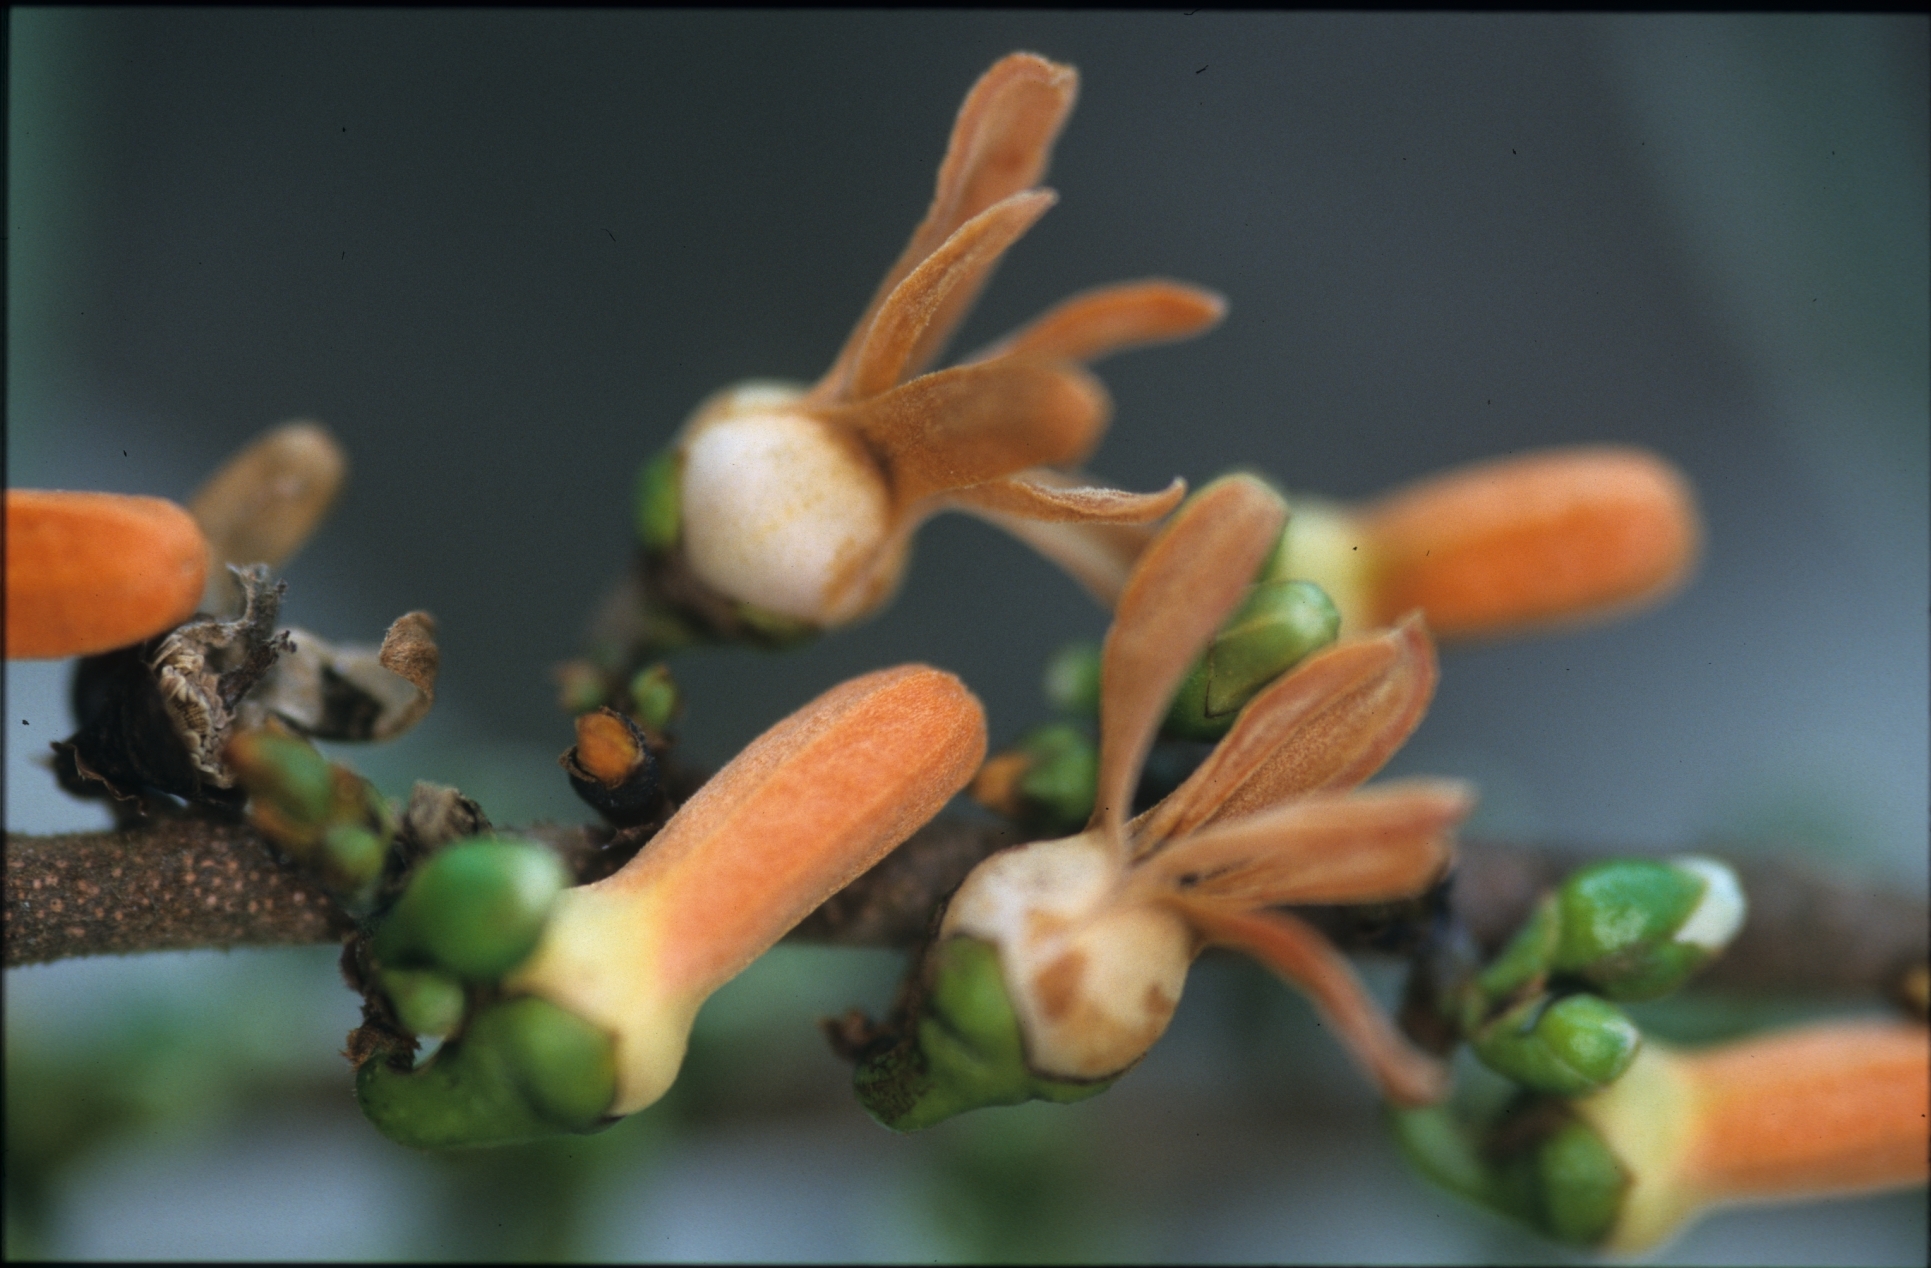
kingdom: Plantae
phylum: Tracheophyta
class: Magnoliopsida
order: Magnoliales
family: Annonaceae
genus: Xylopia
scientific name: Xylopia emarginata
